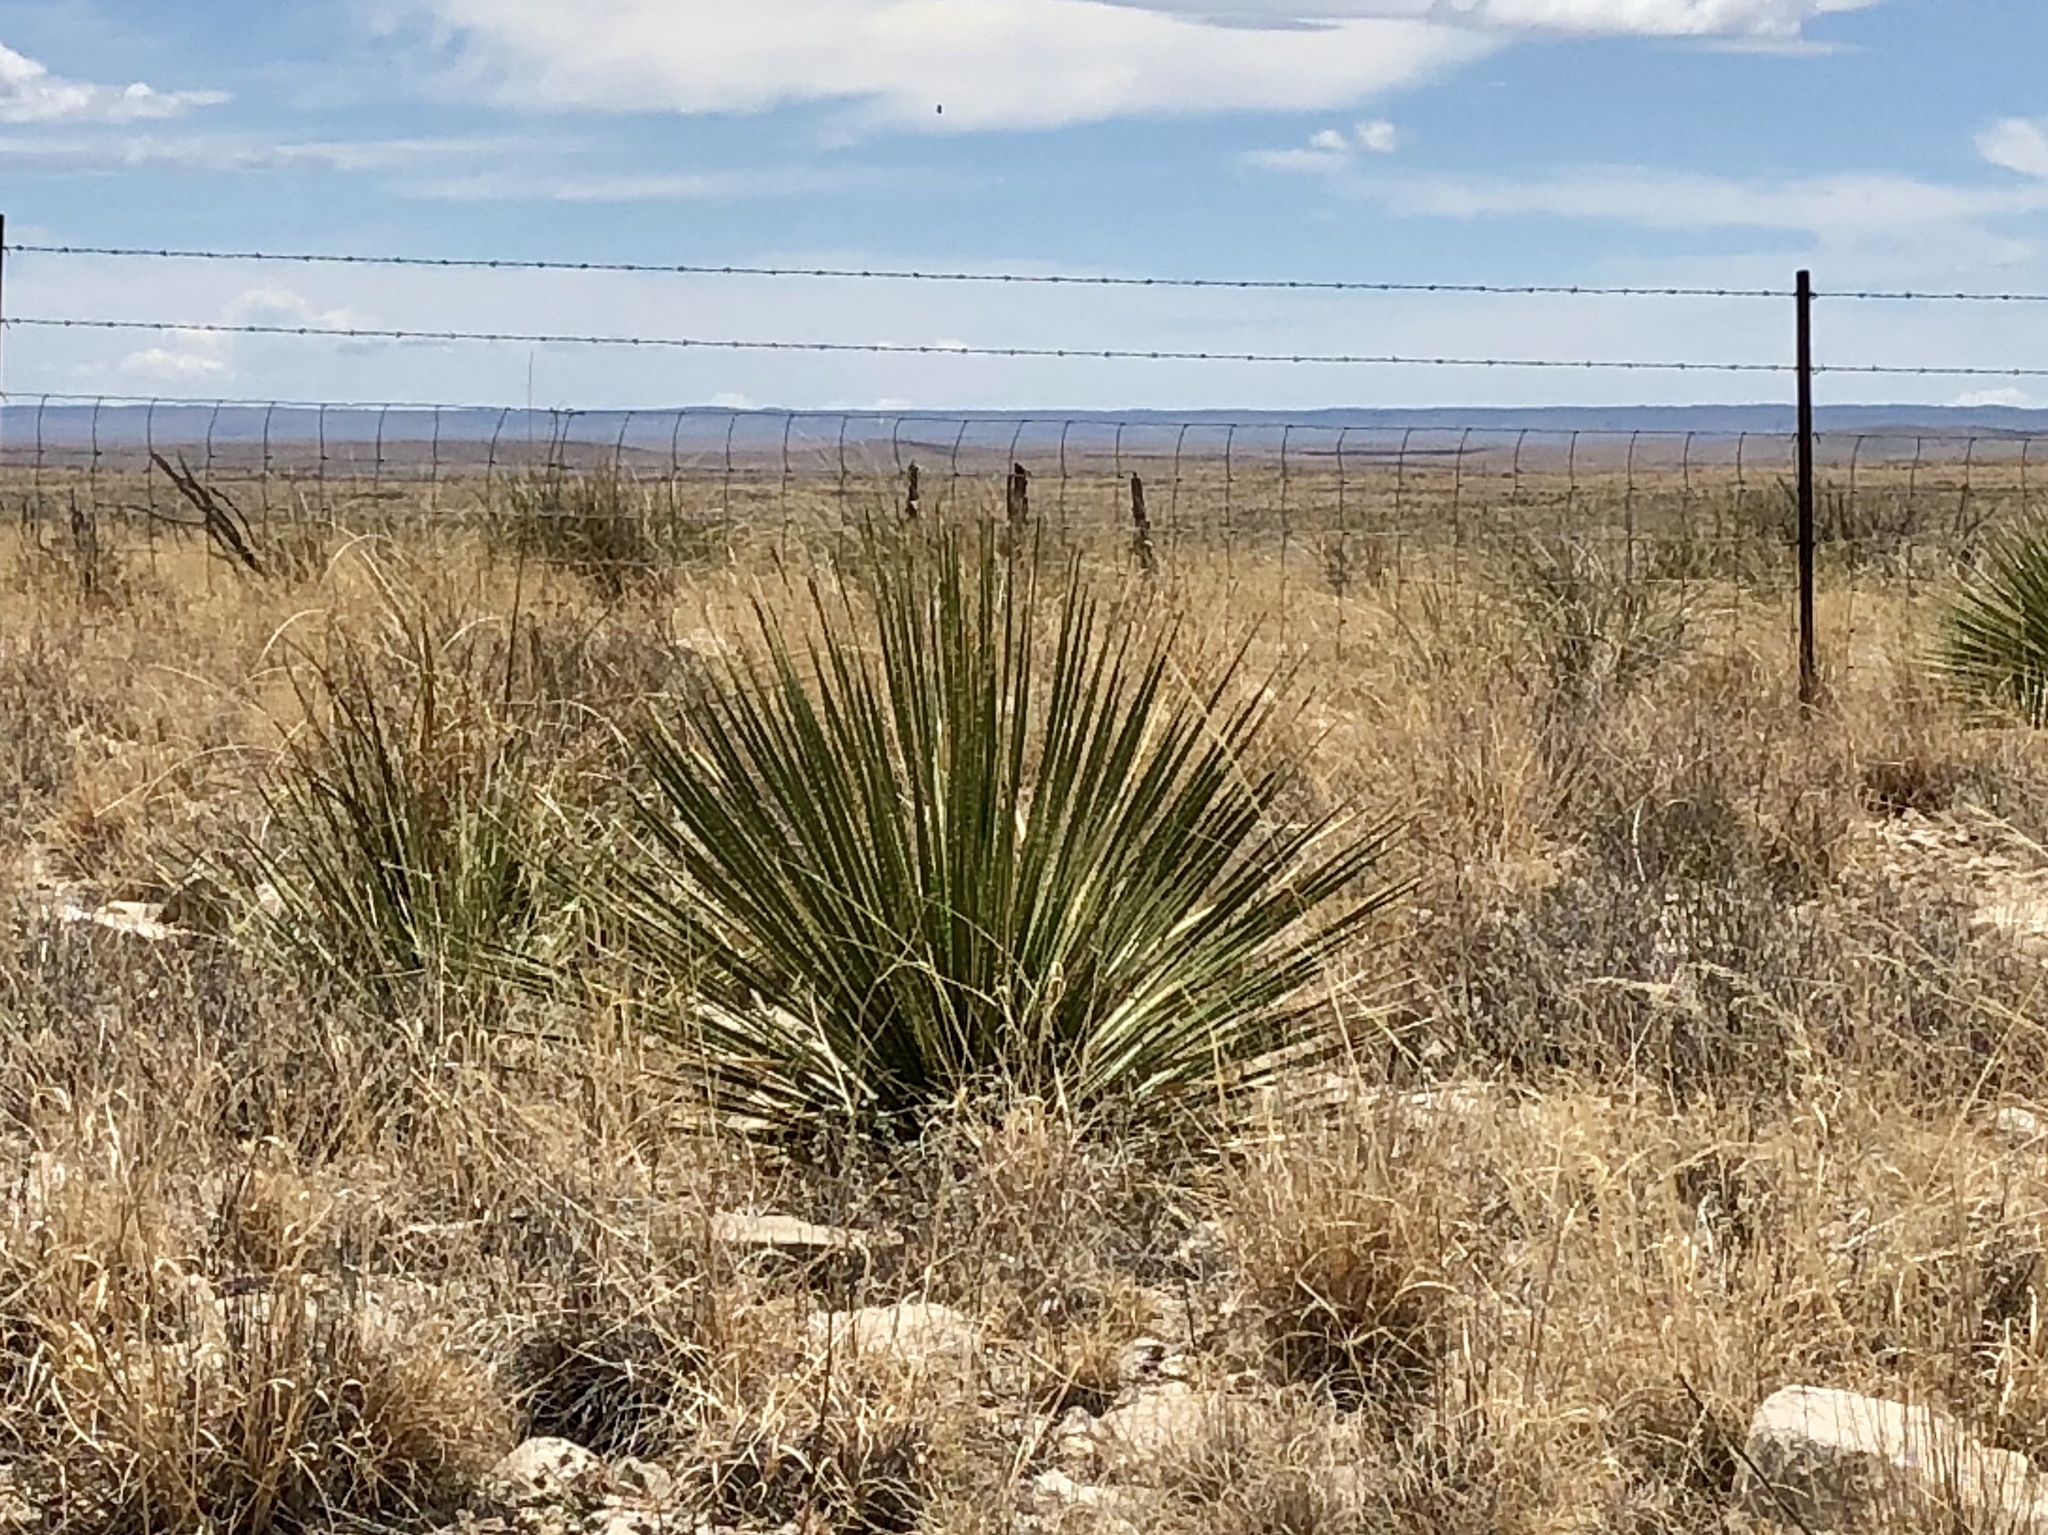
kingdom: Plantae
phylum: Tracheophyta
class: Liliopsida
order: Asparagales
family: Asparagaceae
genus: Dasylirion
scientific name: Dasylirion
